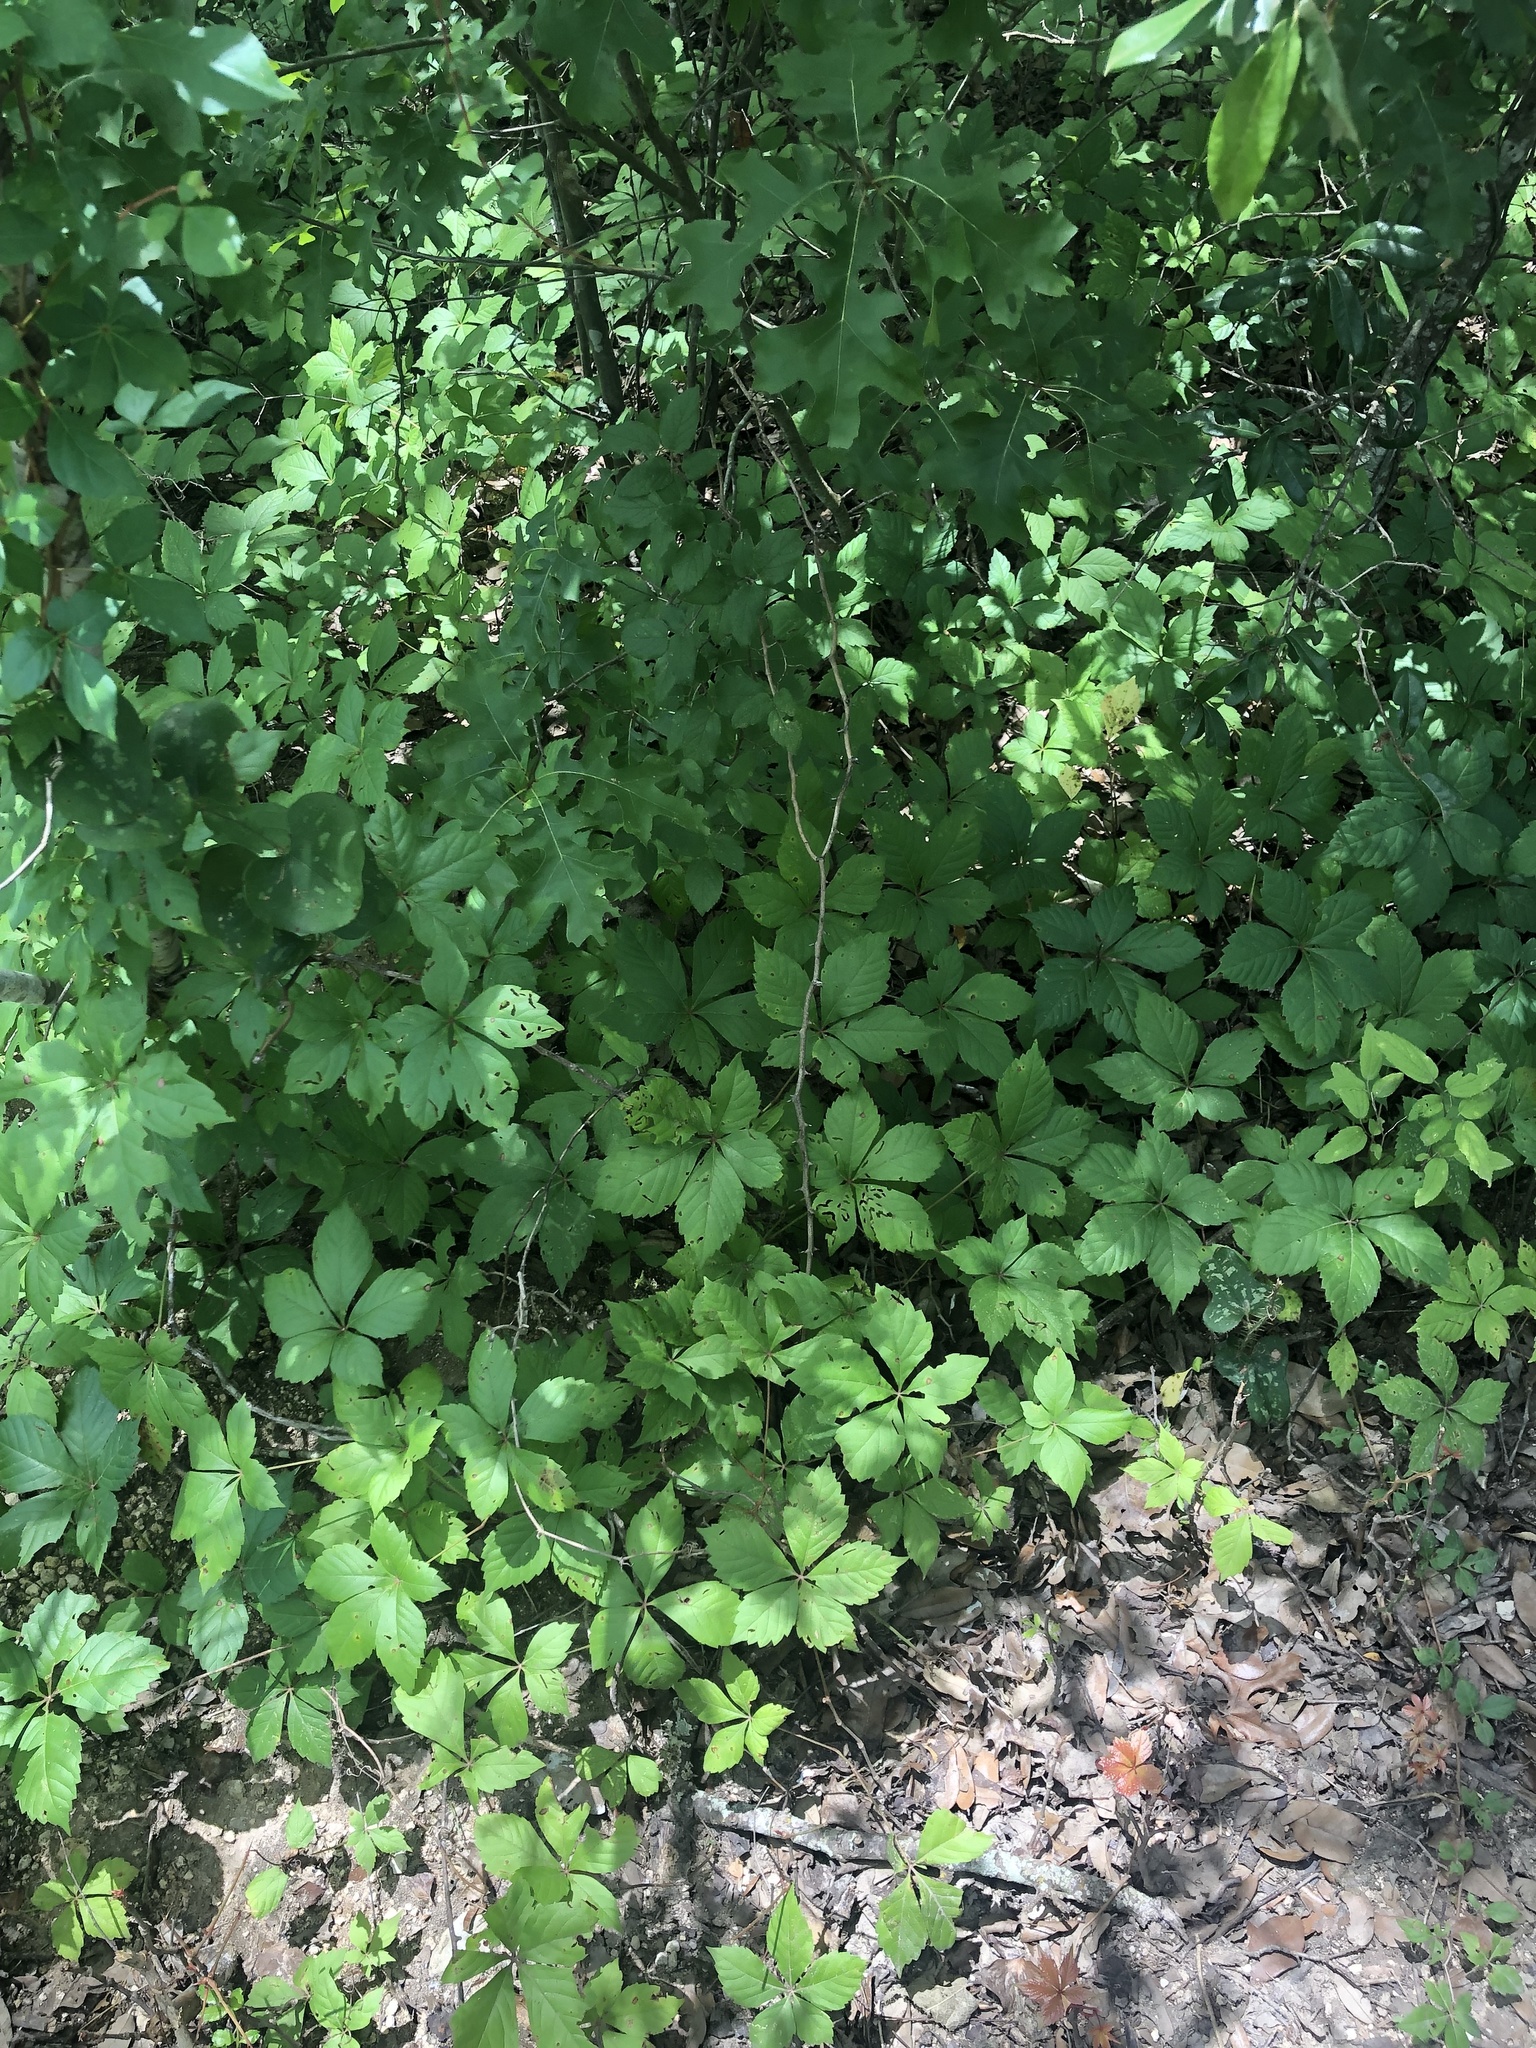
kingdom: Plantae
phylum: Tracheophyta
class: Magnoliopsida
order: Vitales
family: Vitaceae
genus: Parthenocissus
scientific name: Parthenocissus quinquefolia
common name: Virginia-creeper
